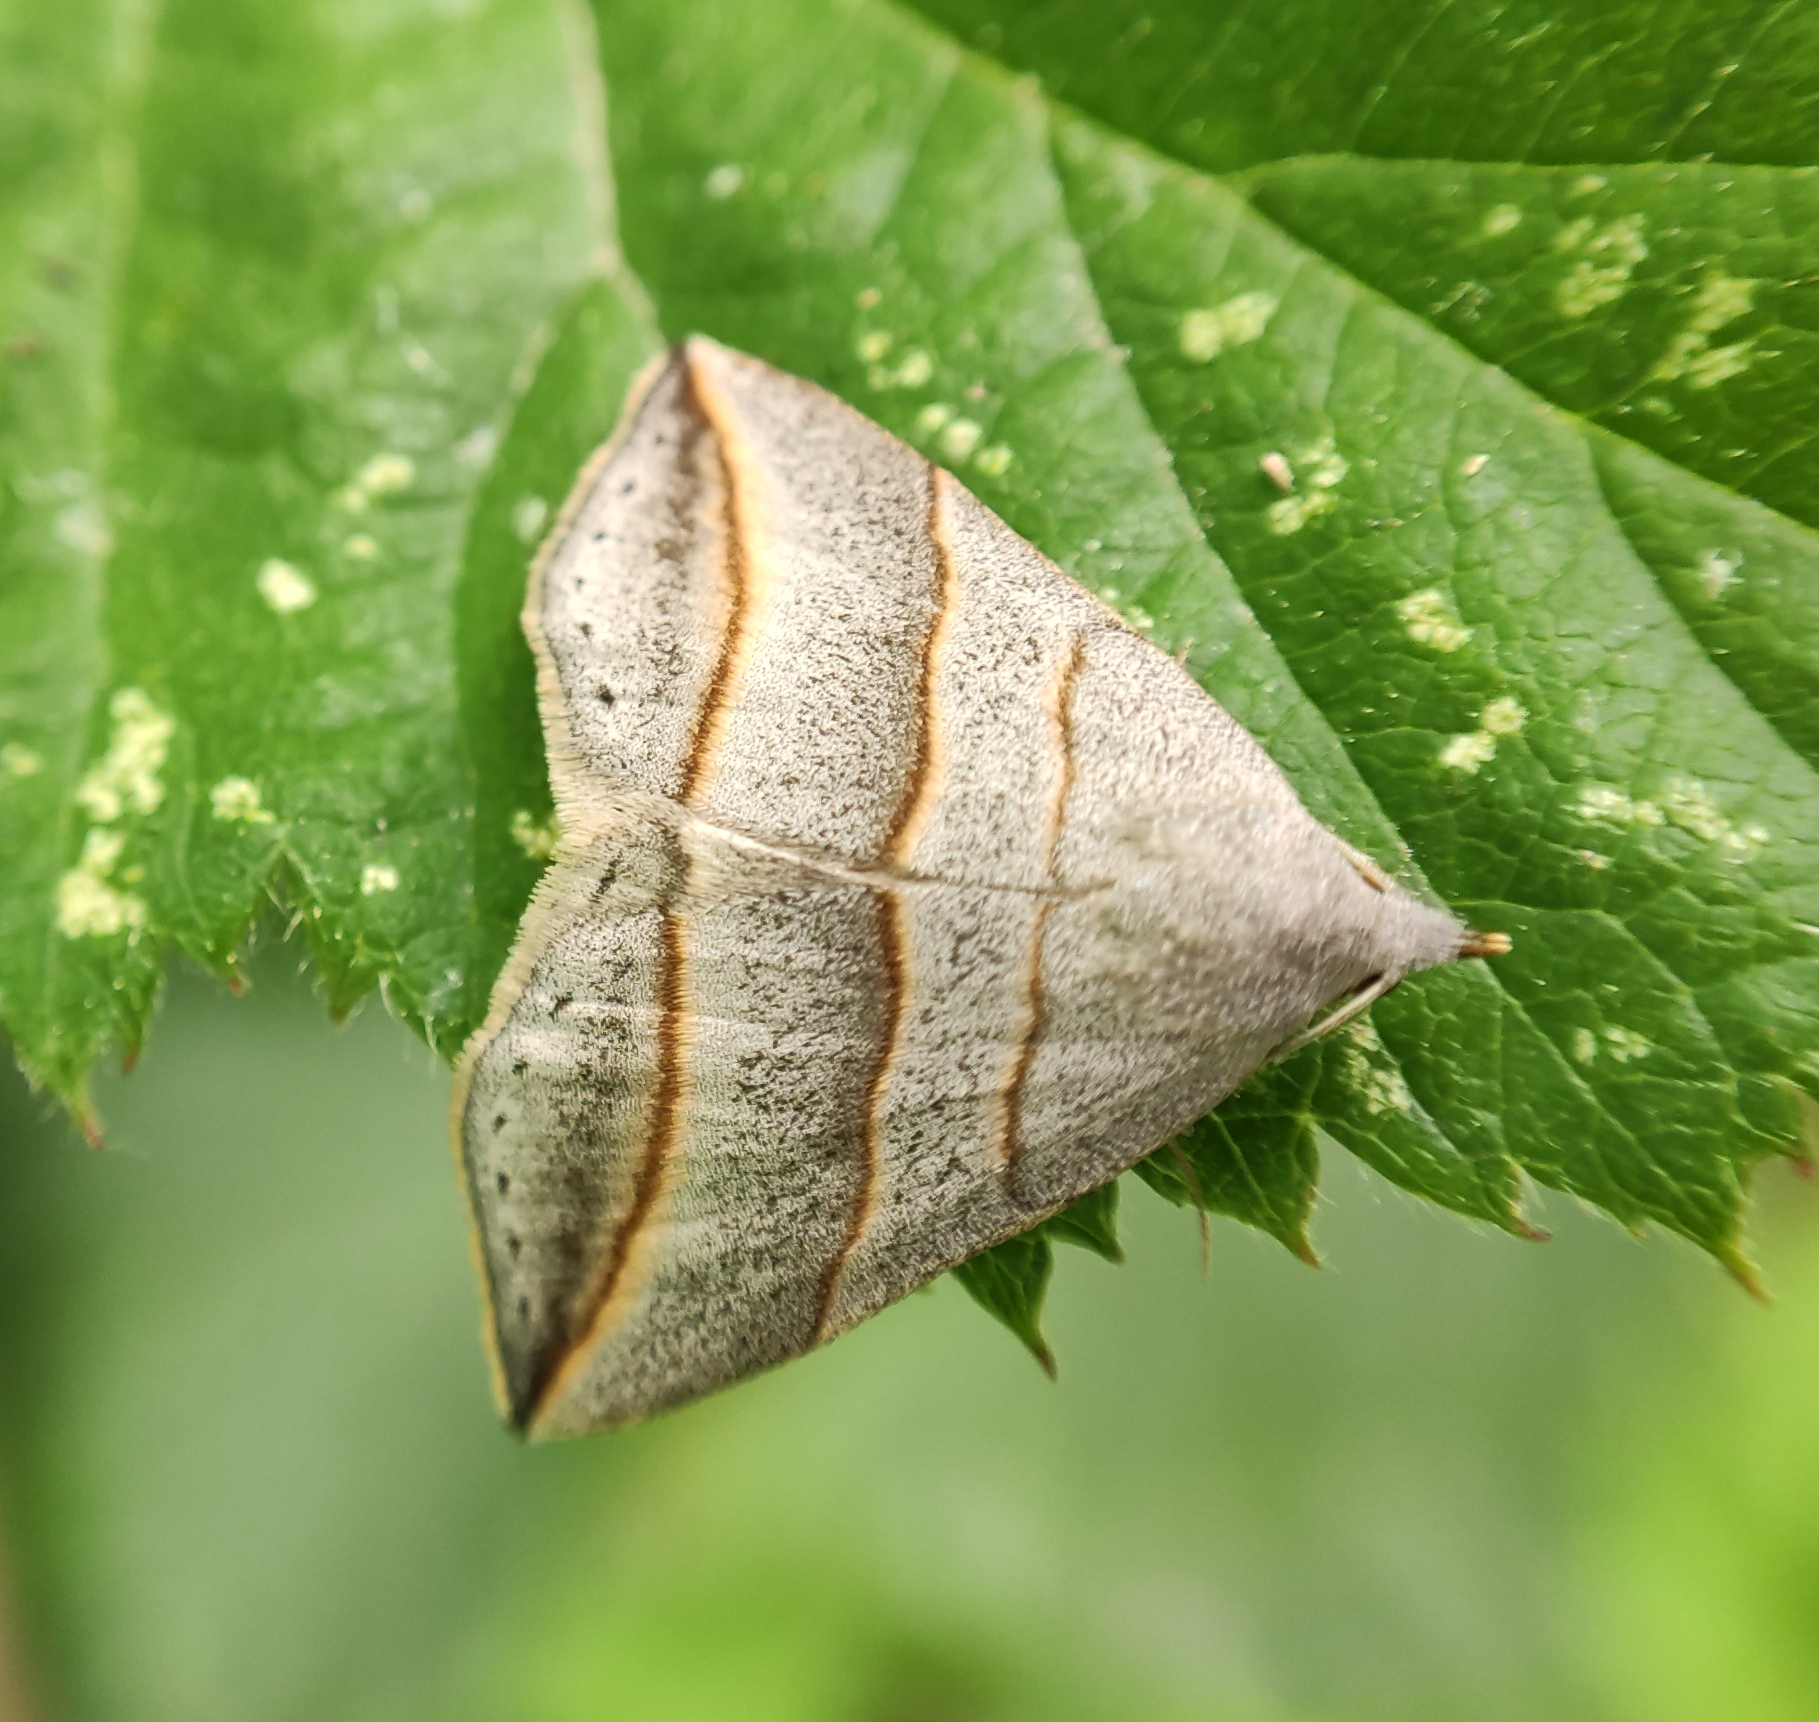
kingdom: Animalia
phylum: Arthropoda
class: Insecta
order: Lepidoptera
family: Erebidae
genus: Colobochyla
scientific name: Colobochyla salicalis
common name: Lesser belle
